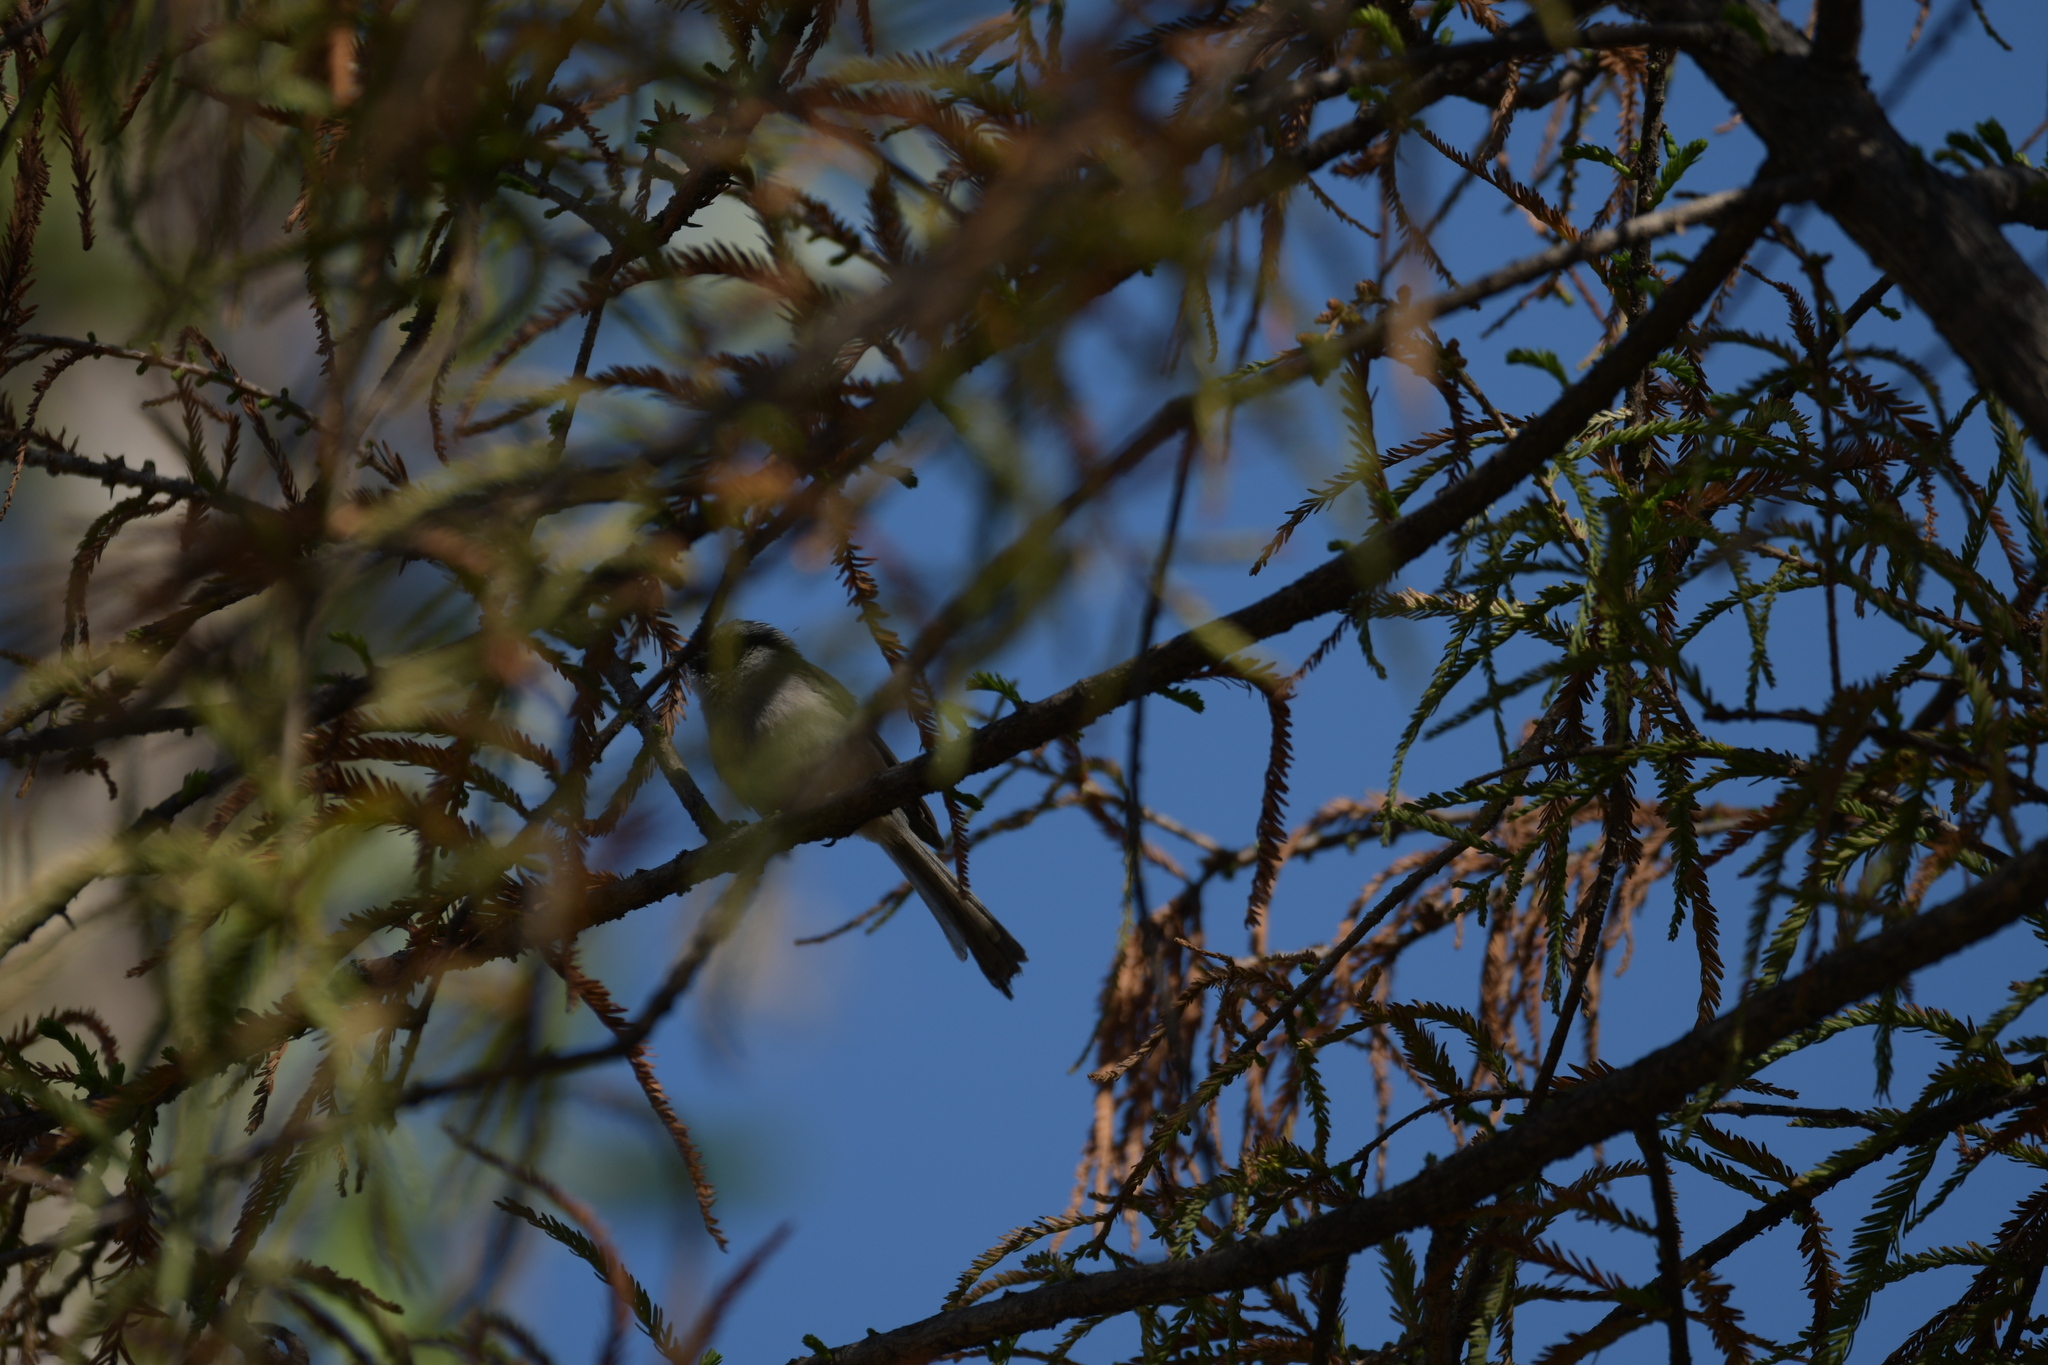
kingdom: Animalia
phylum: Chordata
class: Aves
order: Passeriformes
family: Aegithalidae
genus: Psaltriparus
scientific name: Psaltriparus minimus
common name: American bushtit
